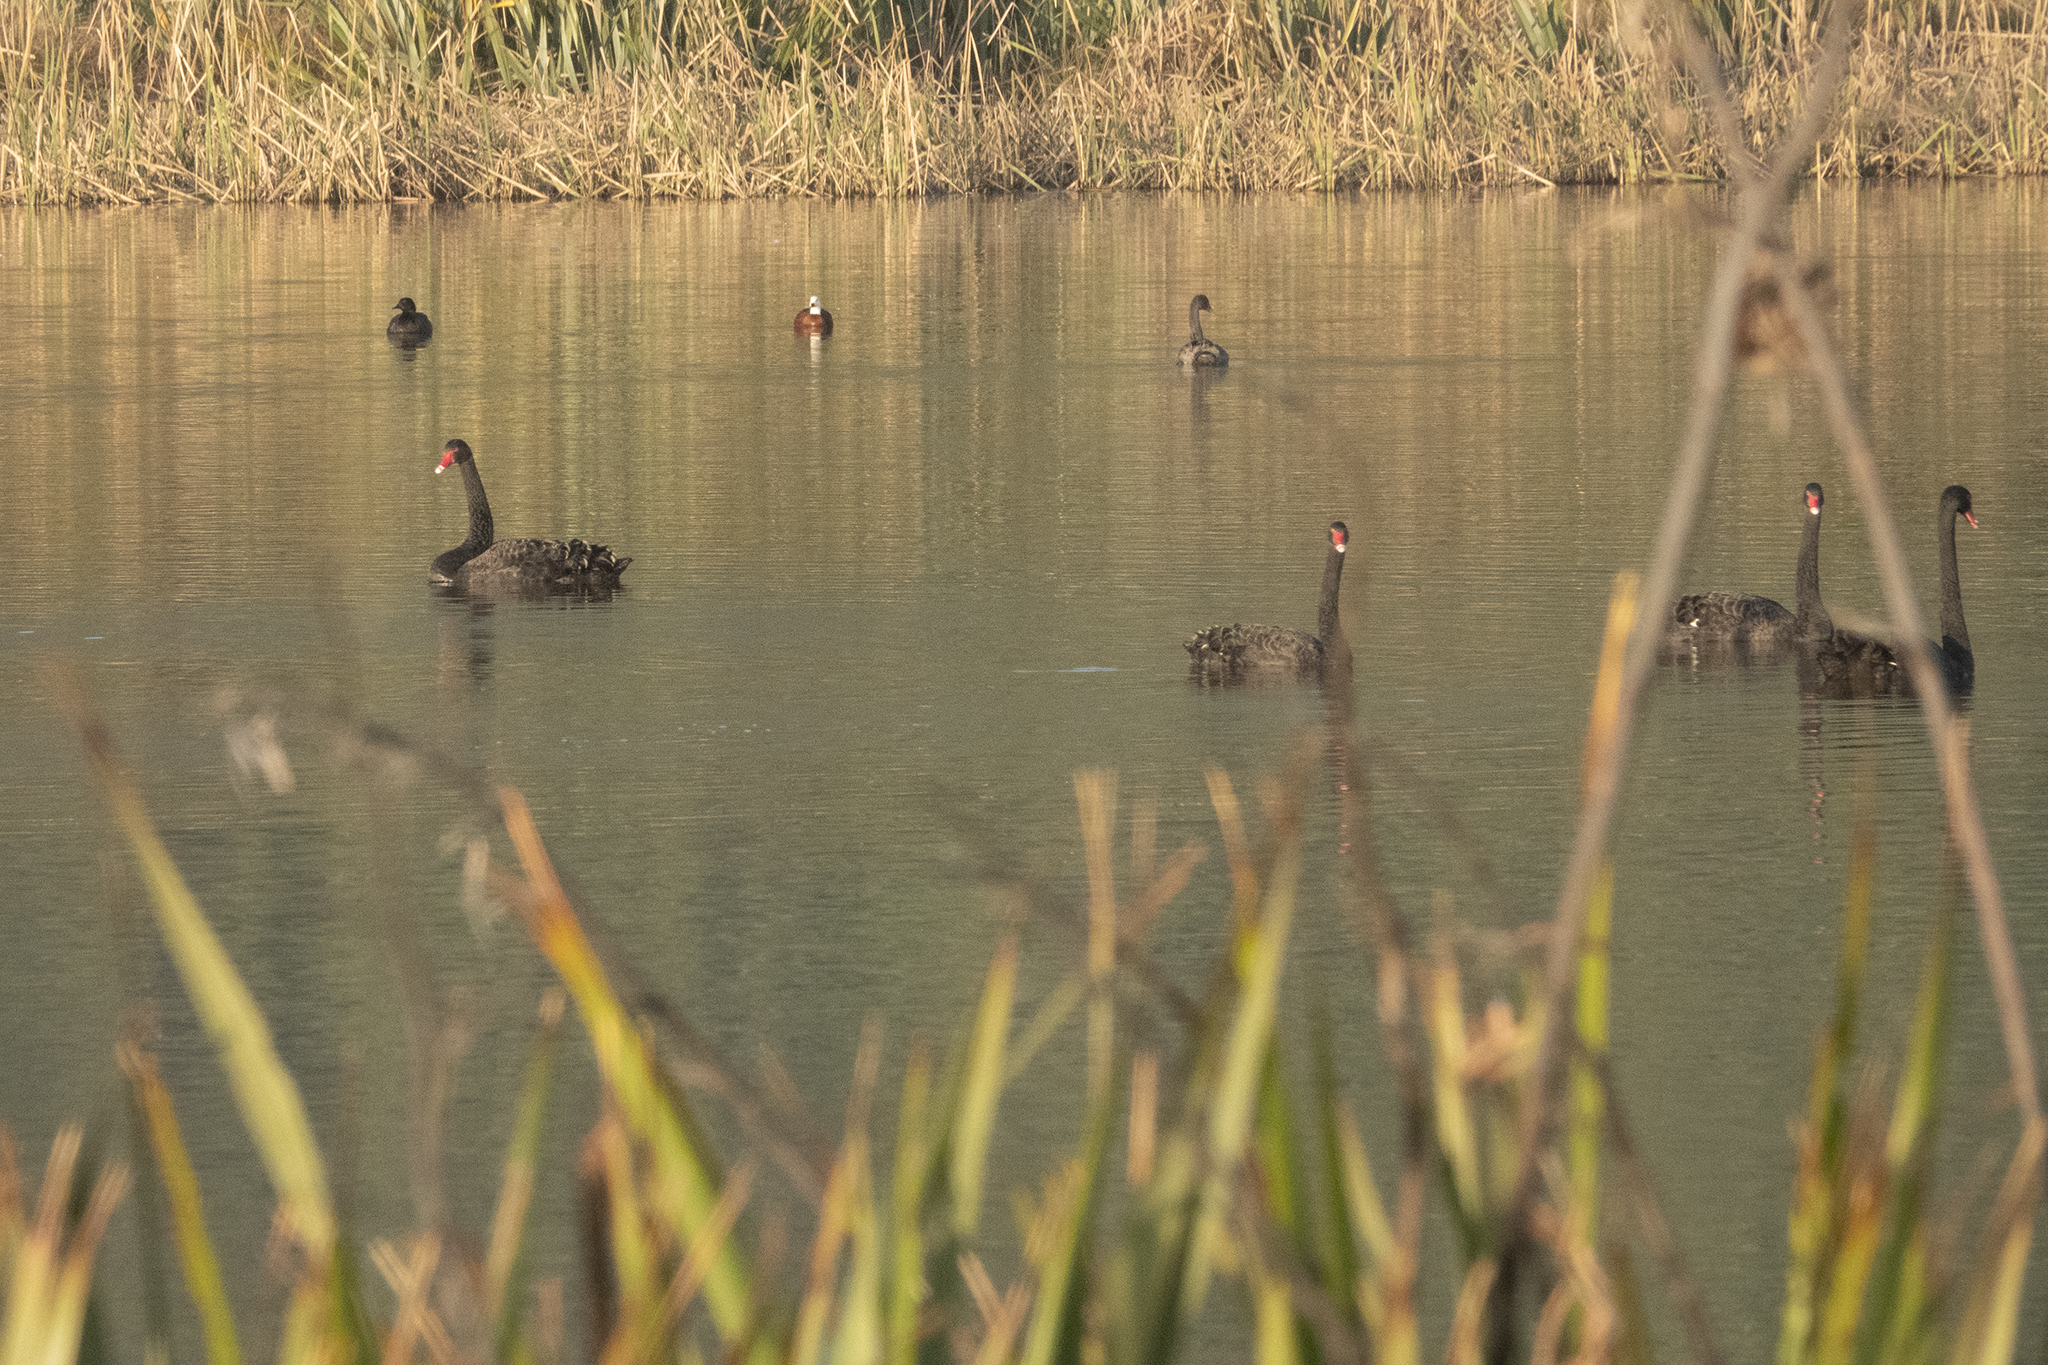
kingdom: Animalia
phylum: Chordata
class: Aves
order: Anseriformes
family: Anatidae
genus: Cygnus
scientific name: Cygnus atratus
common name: Black swan
